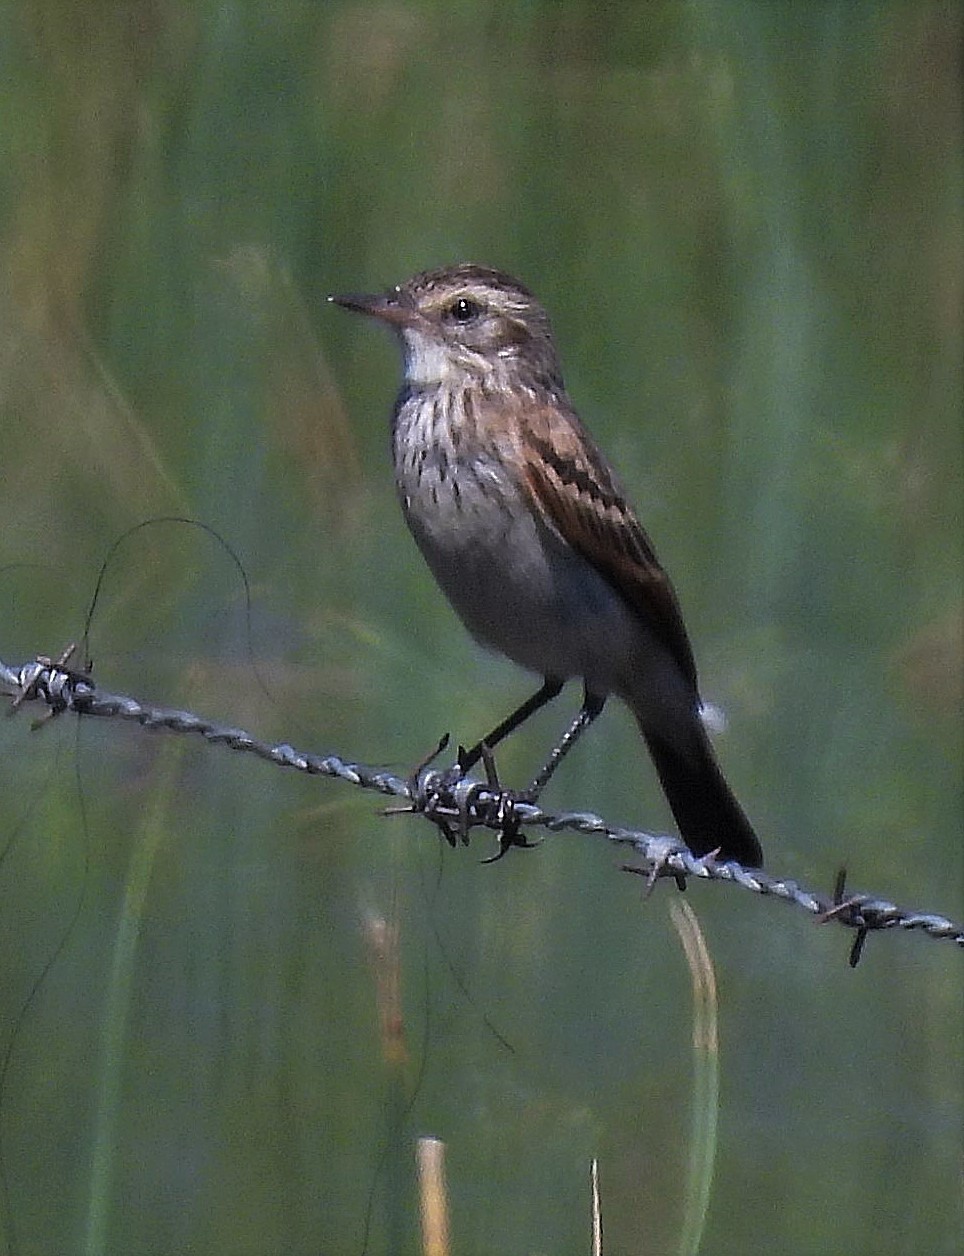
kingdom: Animalia
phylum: Chordata
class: Aves
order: Passeriformes
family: Tyrannidae
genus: Hymenops
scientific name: Hymenops perspicillatus
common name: Spectacled tyrant
